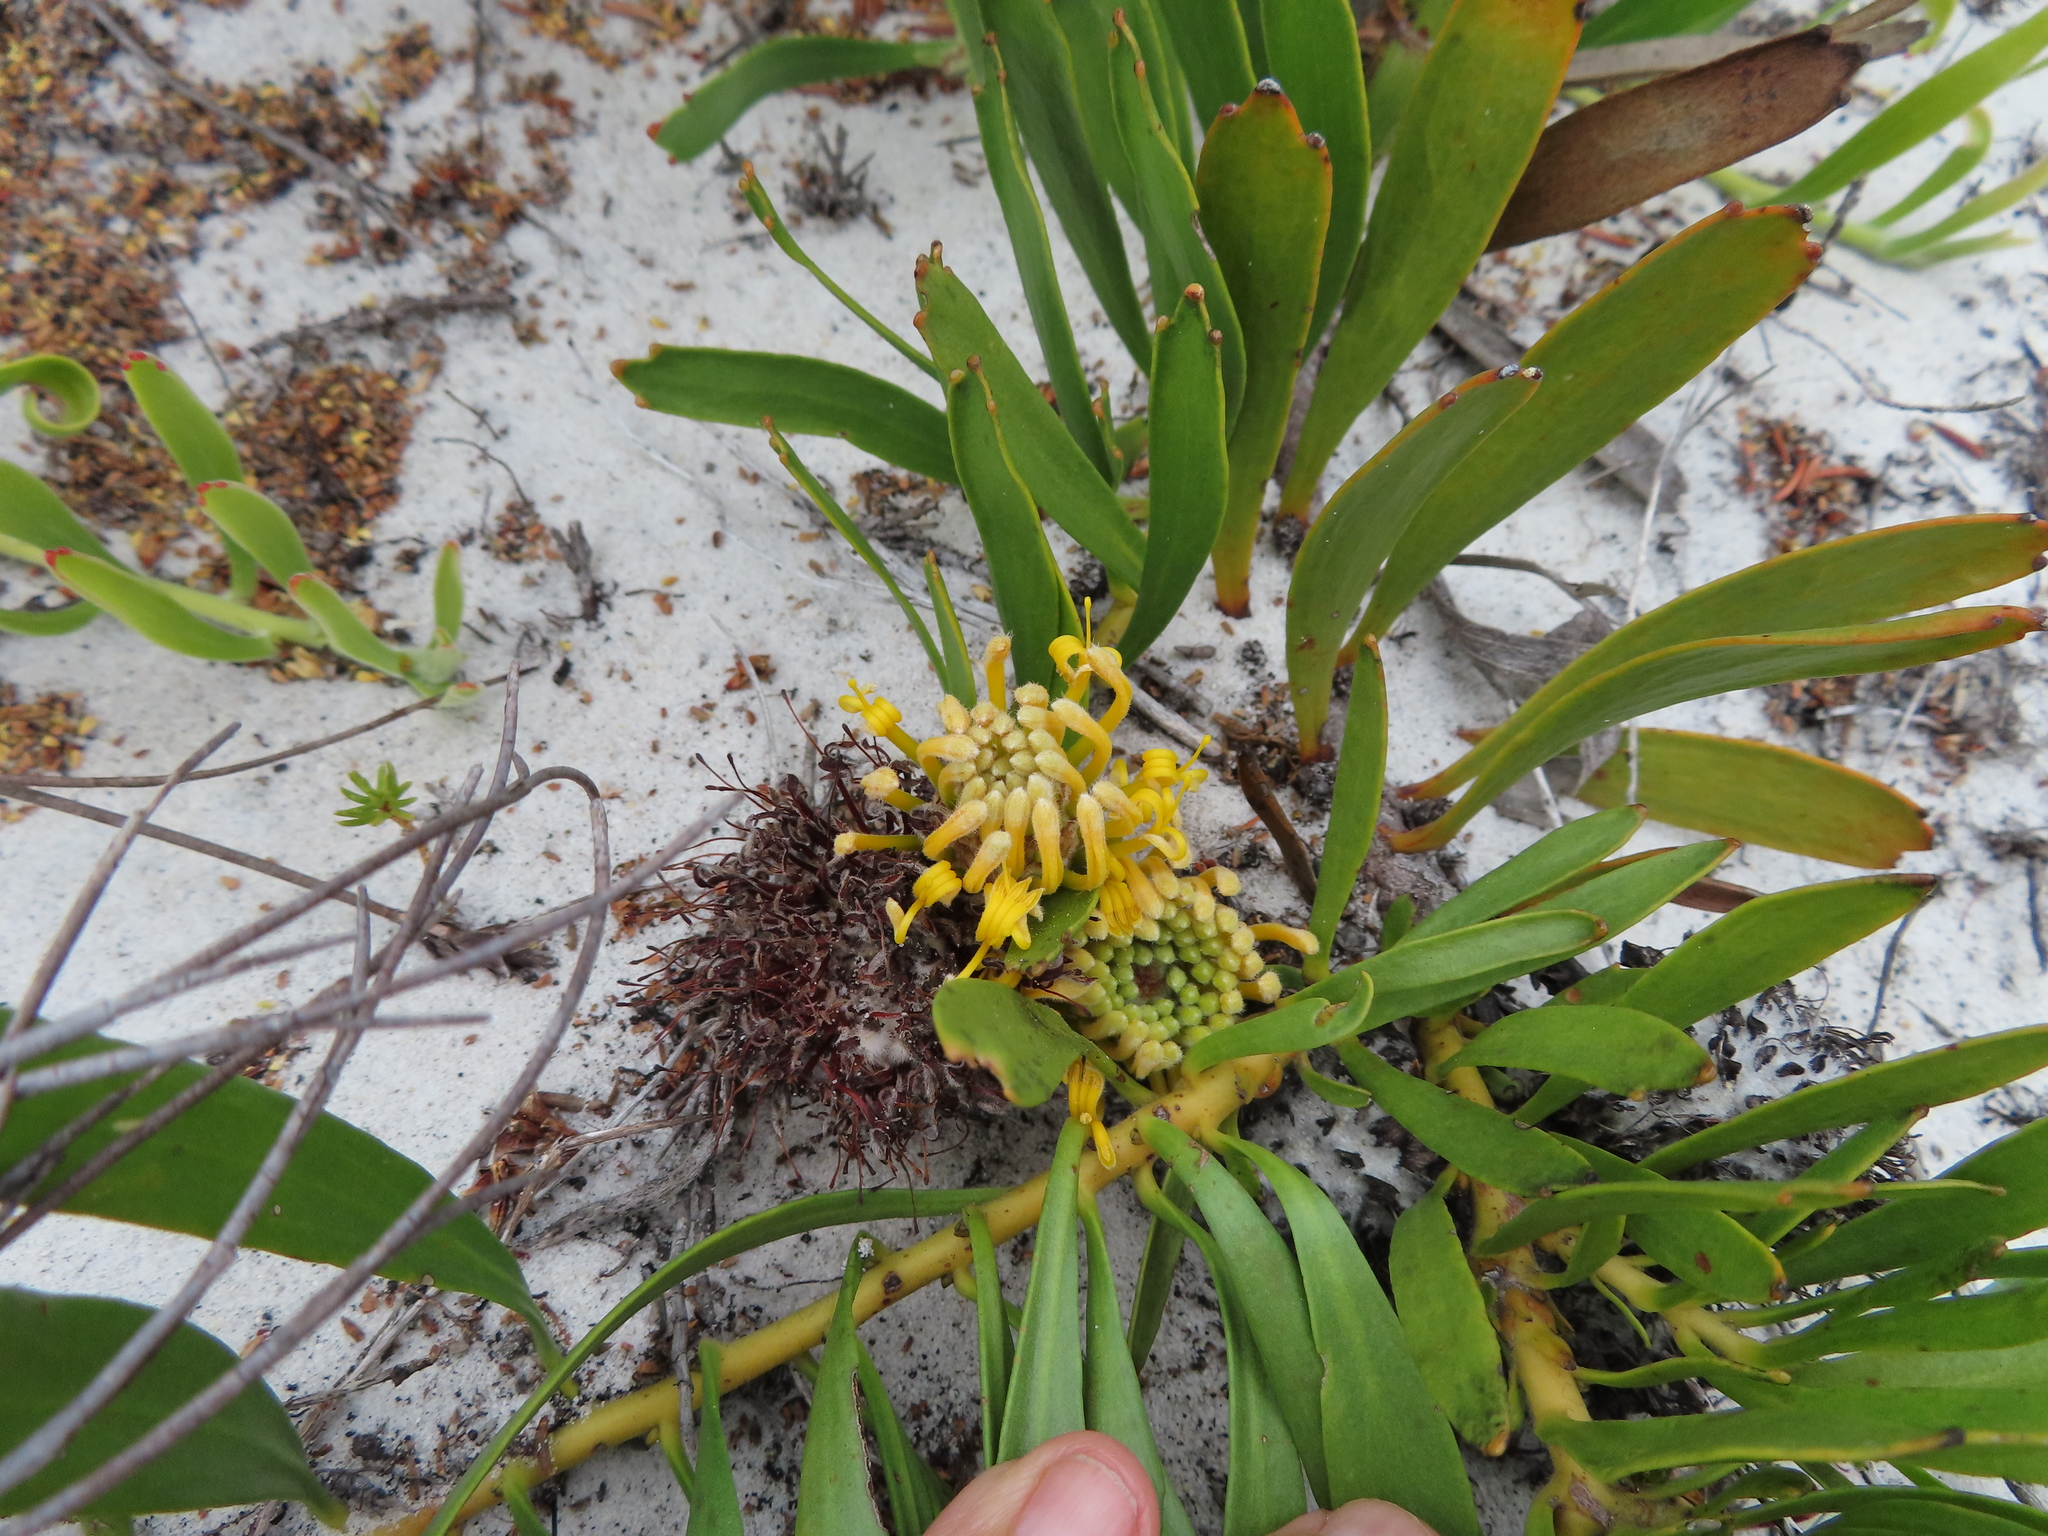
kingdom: Plantae
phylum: Tracheophyta
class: Magnoliopsida
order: Proteales
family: Proteaceae
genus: Leucospermum
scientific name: Leucospermum hypophyllocarpodendron
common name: Snakestem pincushion
